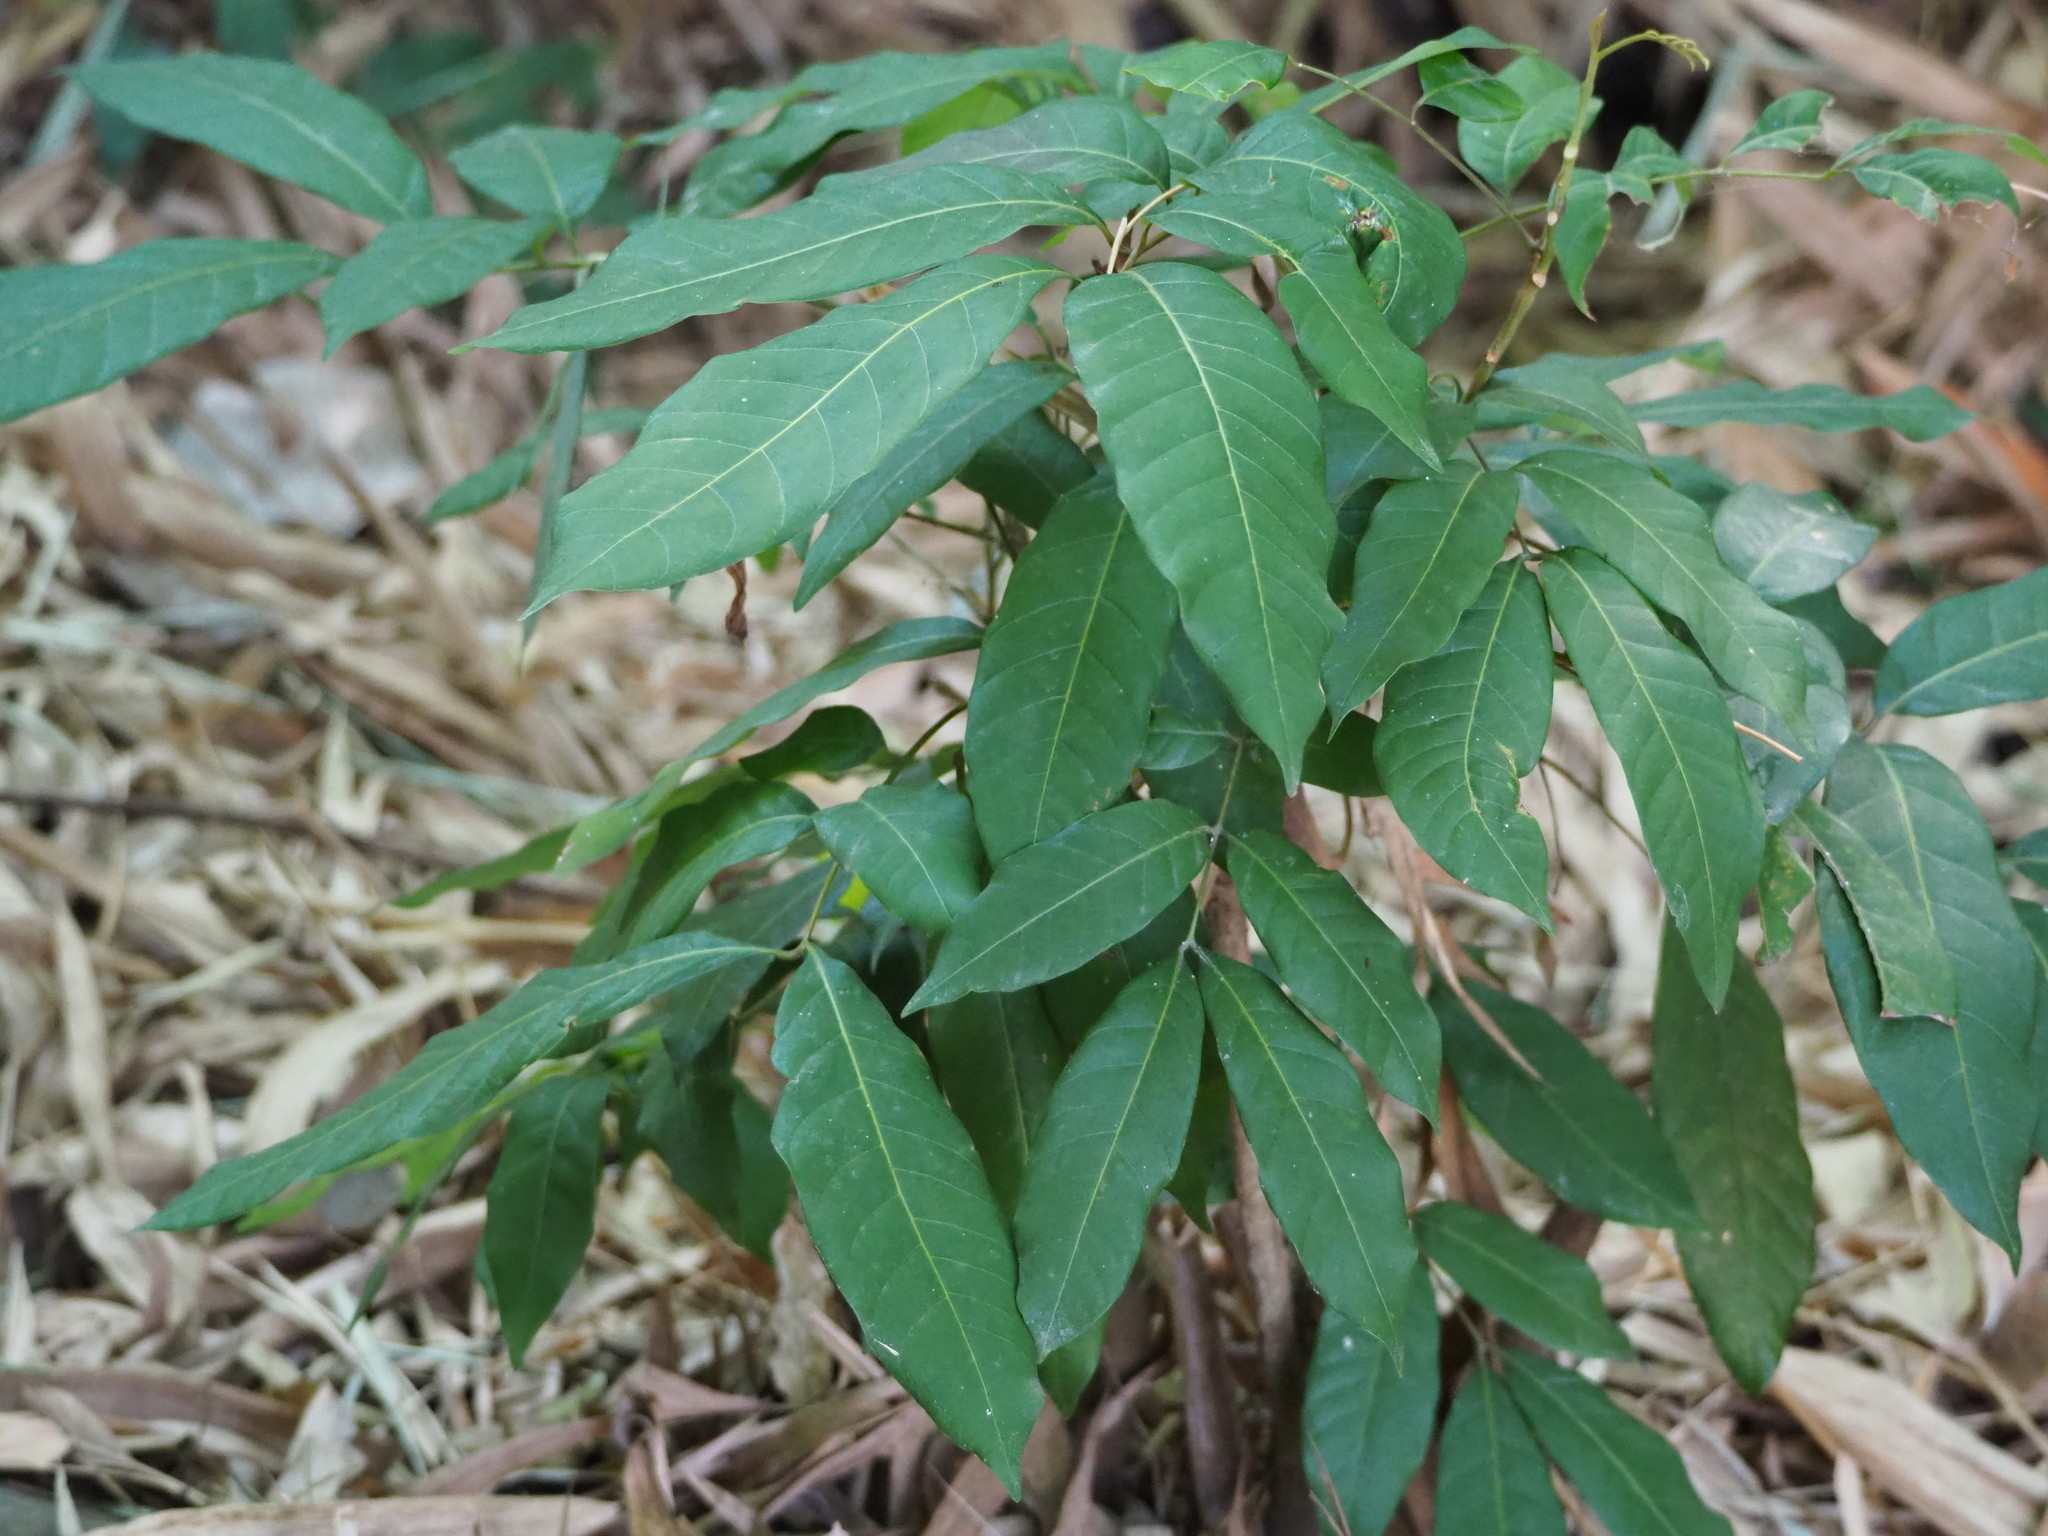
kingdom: Plantae
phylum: Tracheophyta
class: Magnoliopsida
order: Sapindales
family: Sapindaceae
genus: Dimocarpus
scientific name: Dimocarpus longan
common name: Longan
